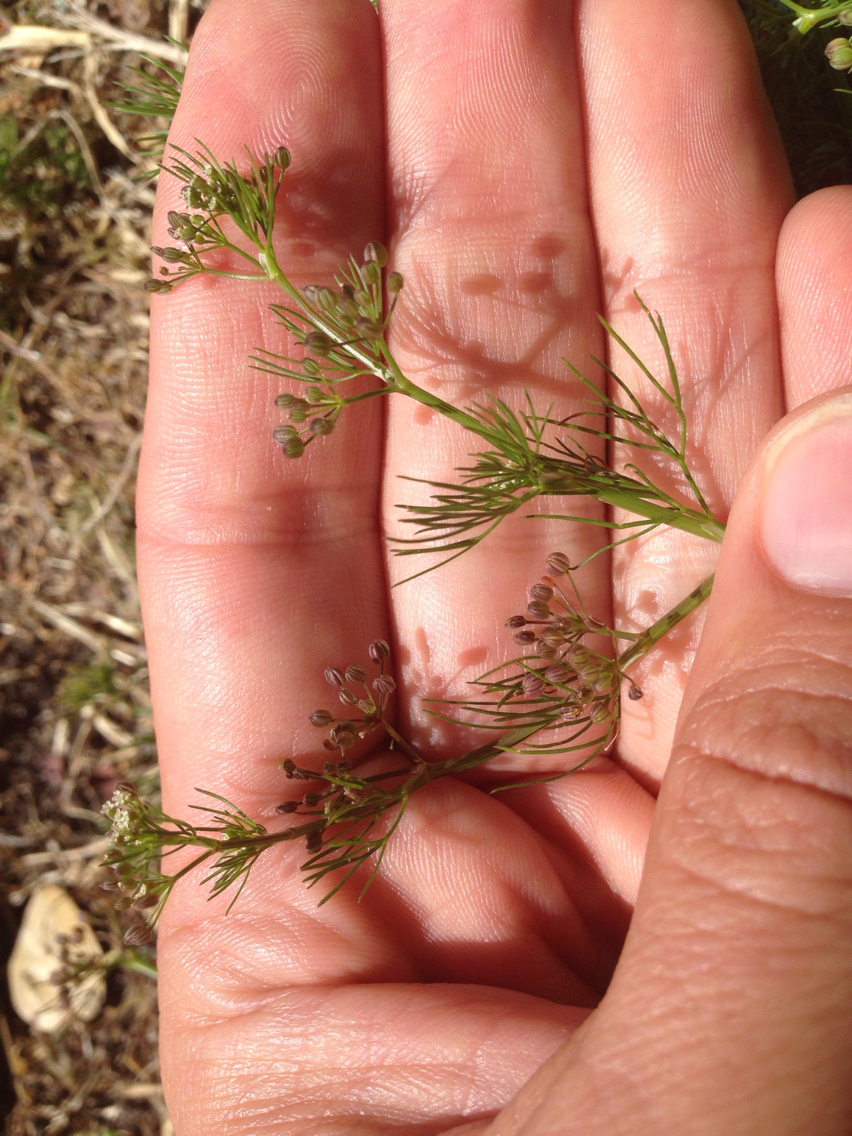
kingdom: Plantae
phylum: Tracheophyta
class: Magnoliopsida
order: Apiales
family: Apiaceae
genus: Cyclospermum
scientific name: Cyclospermum leptophyllum
